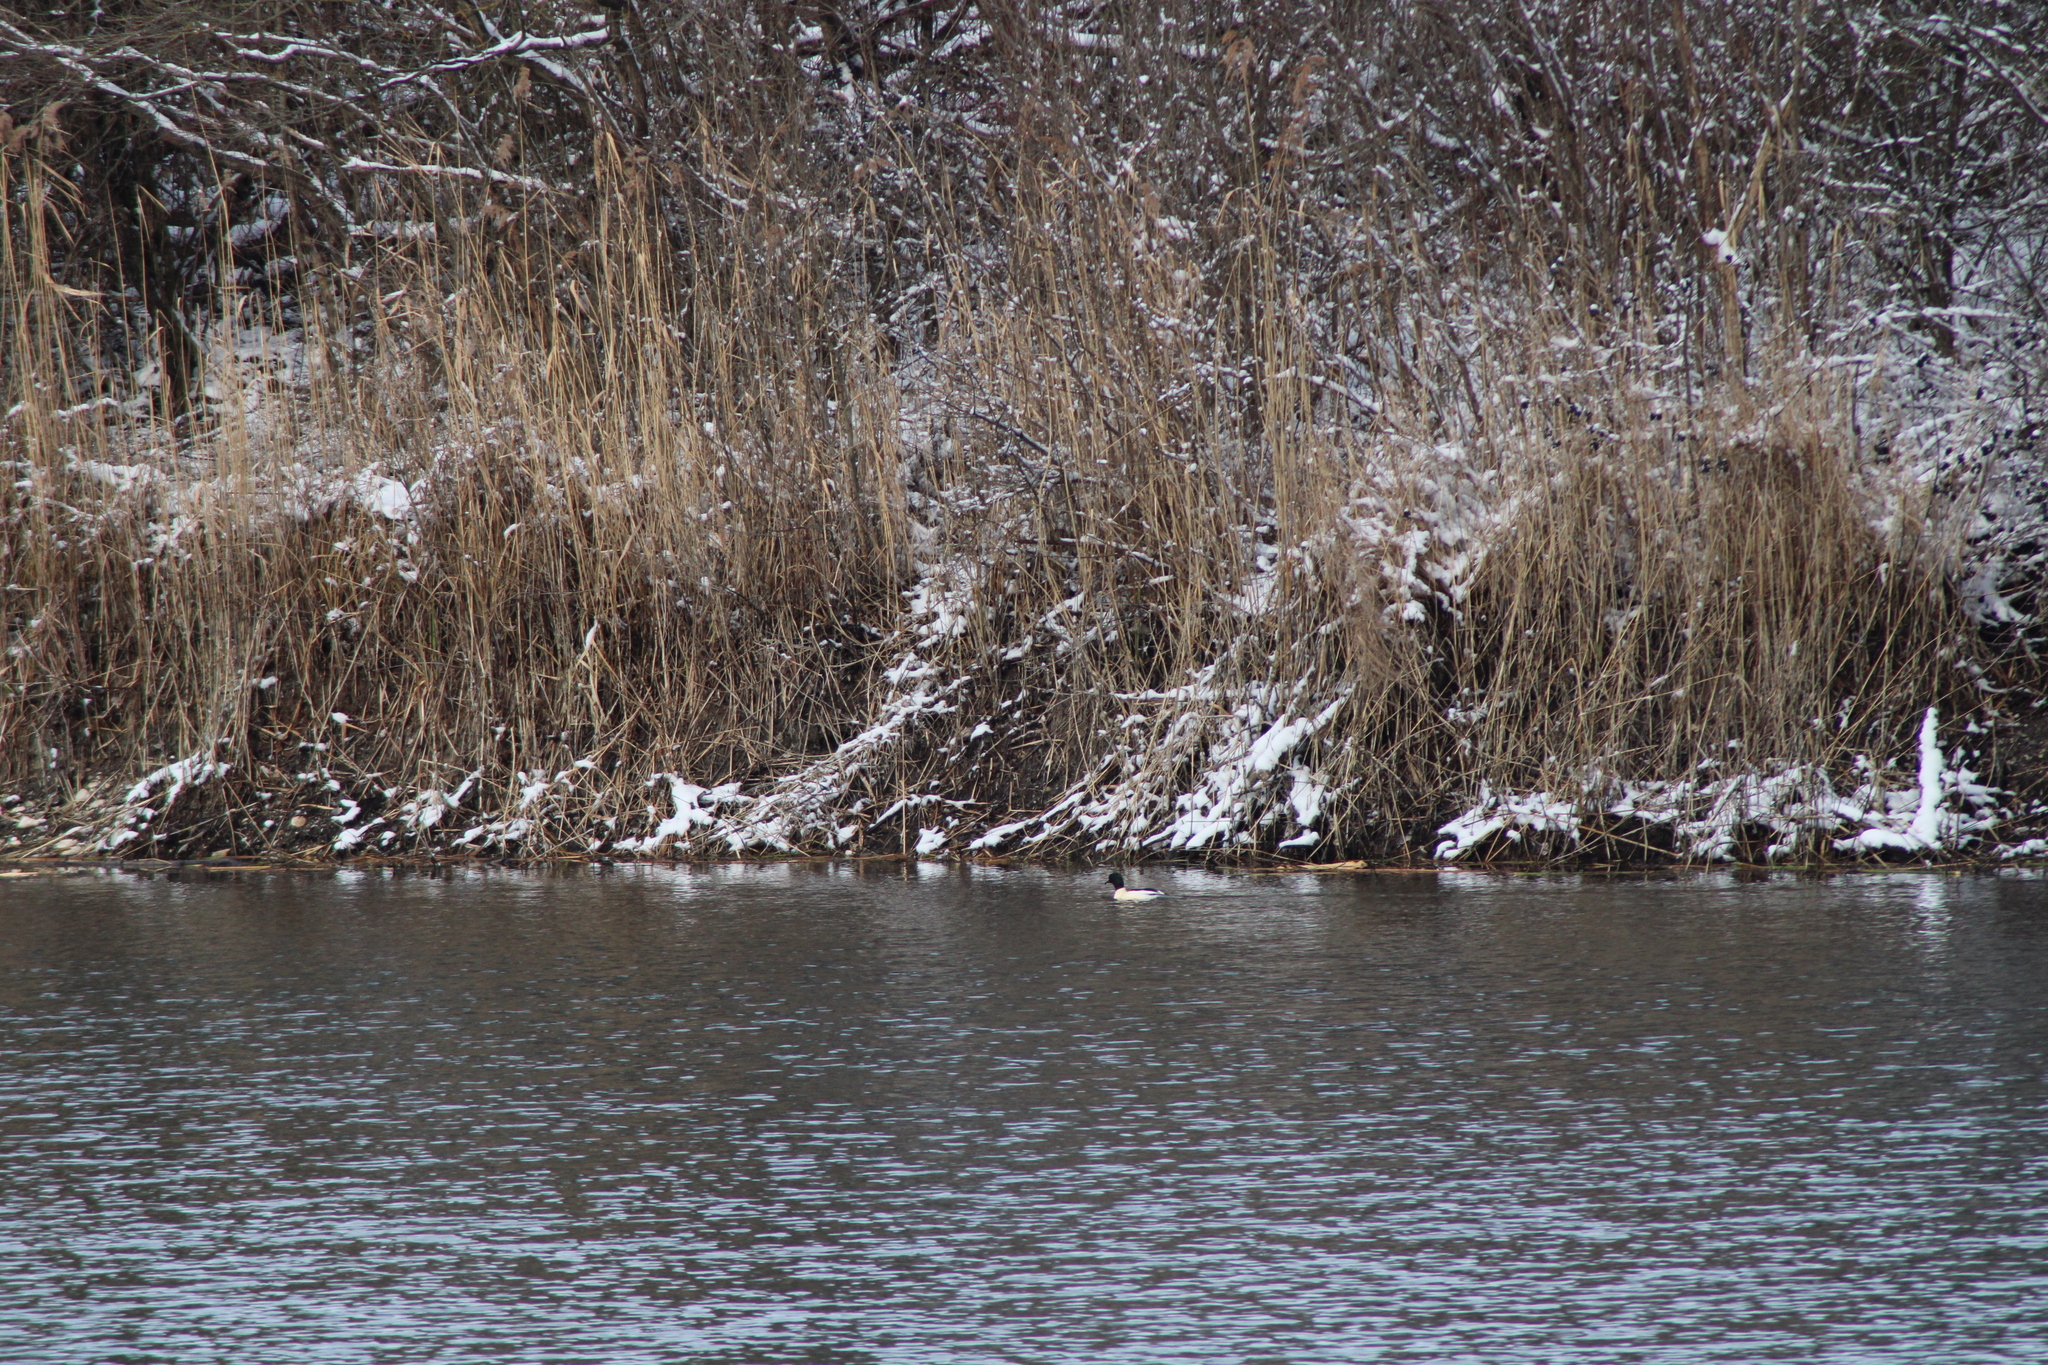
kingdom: Animalia
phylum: Chordata
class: Aves
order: Anseriformes
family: Anatidae
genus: Mergus
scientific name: Mergus merganser
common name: Common merganser
